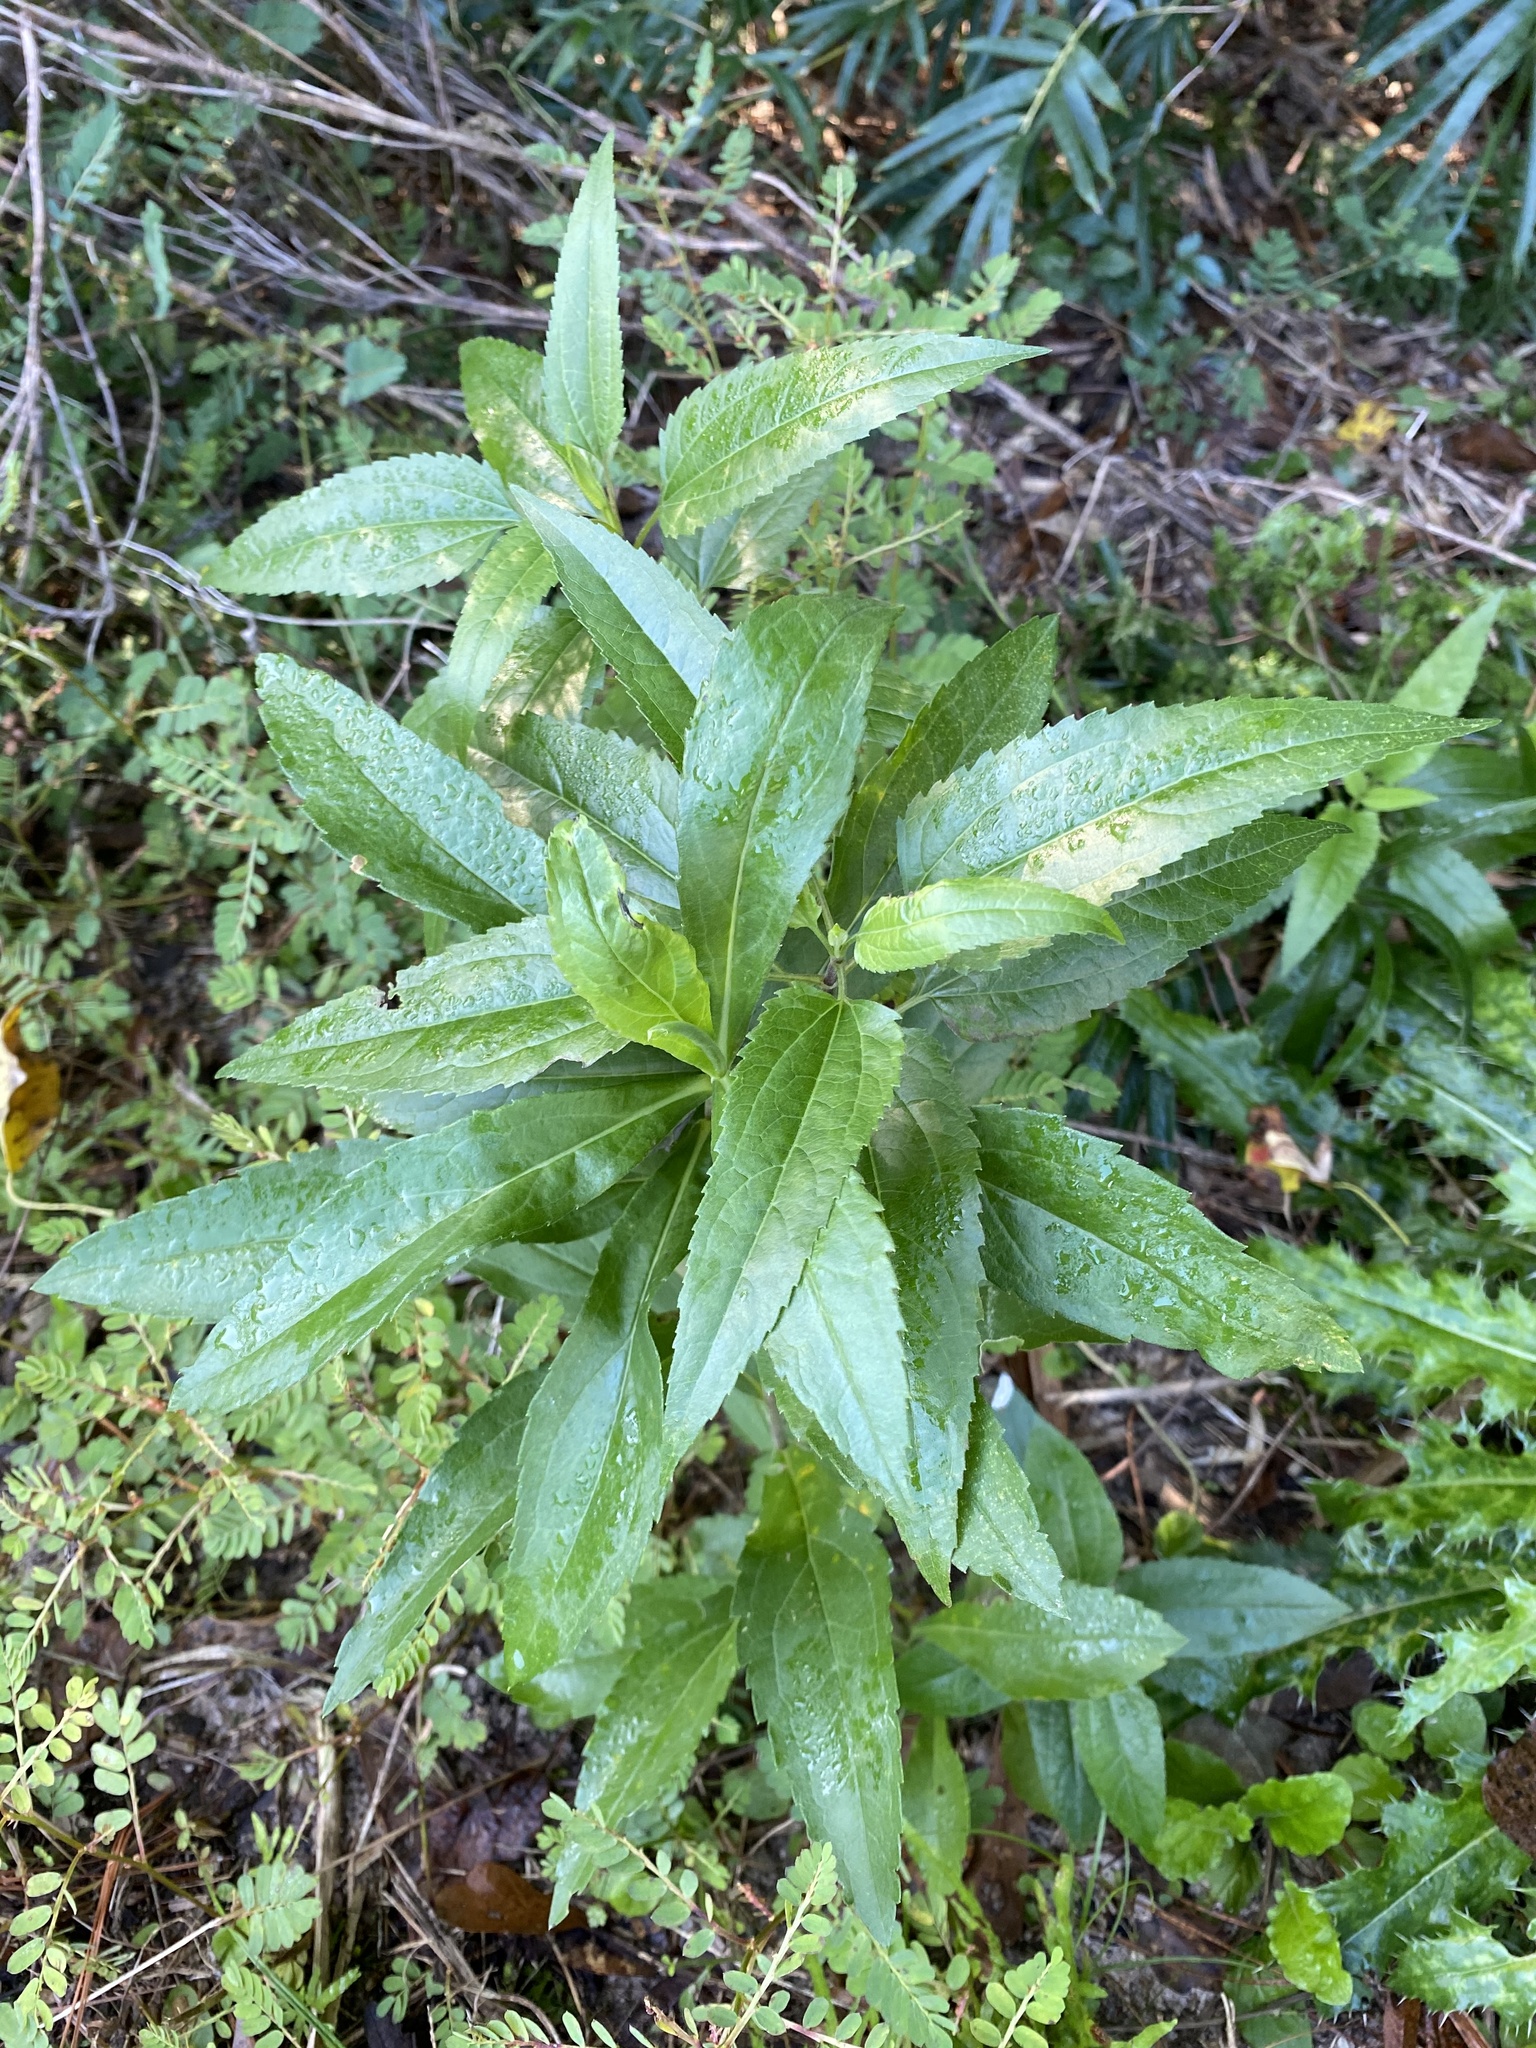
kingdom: Plantae
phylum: Tracheophyta
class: Magnoliopsida
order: Asterales
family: Asteraceae
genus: Eupatorium
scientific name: Eupatorium serotinum
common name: Late boneset
